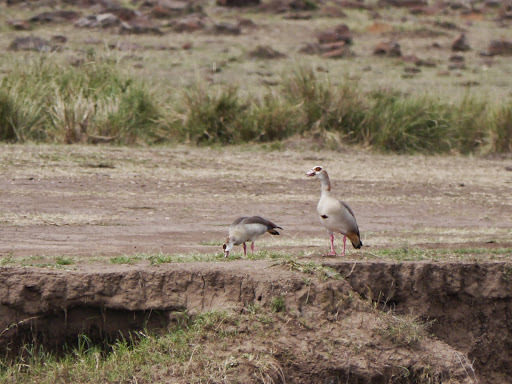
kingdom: Animalia
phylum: Chordata
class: Aves
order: Anseriformes
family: Anatidae
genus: Alopochen
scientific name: Alopochen aegyptiaca
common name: Egyptian goose
